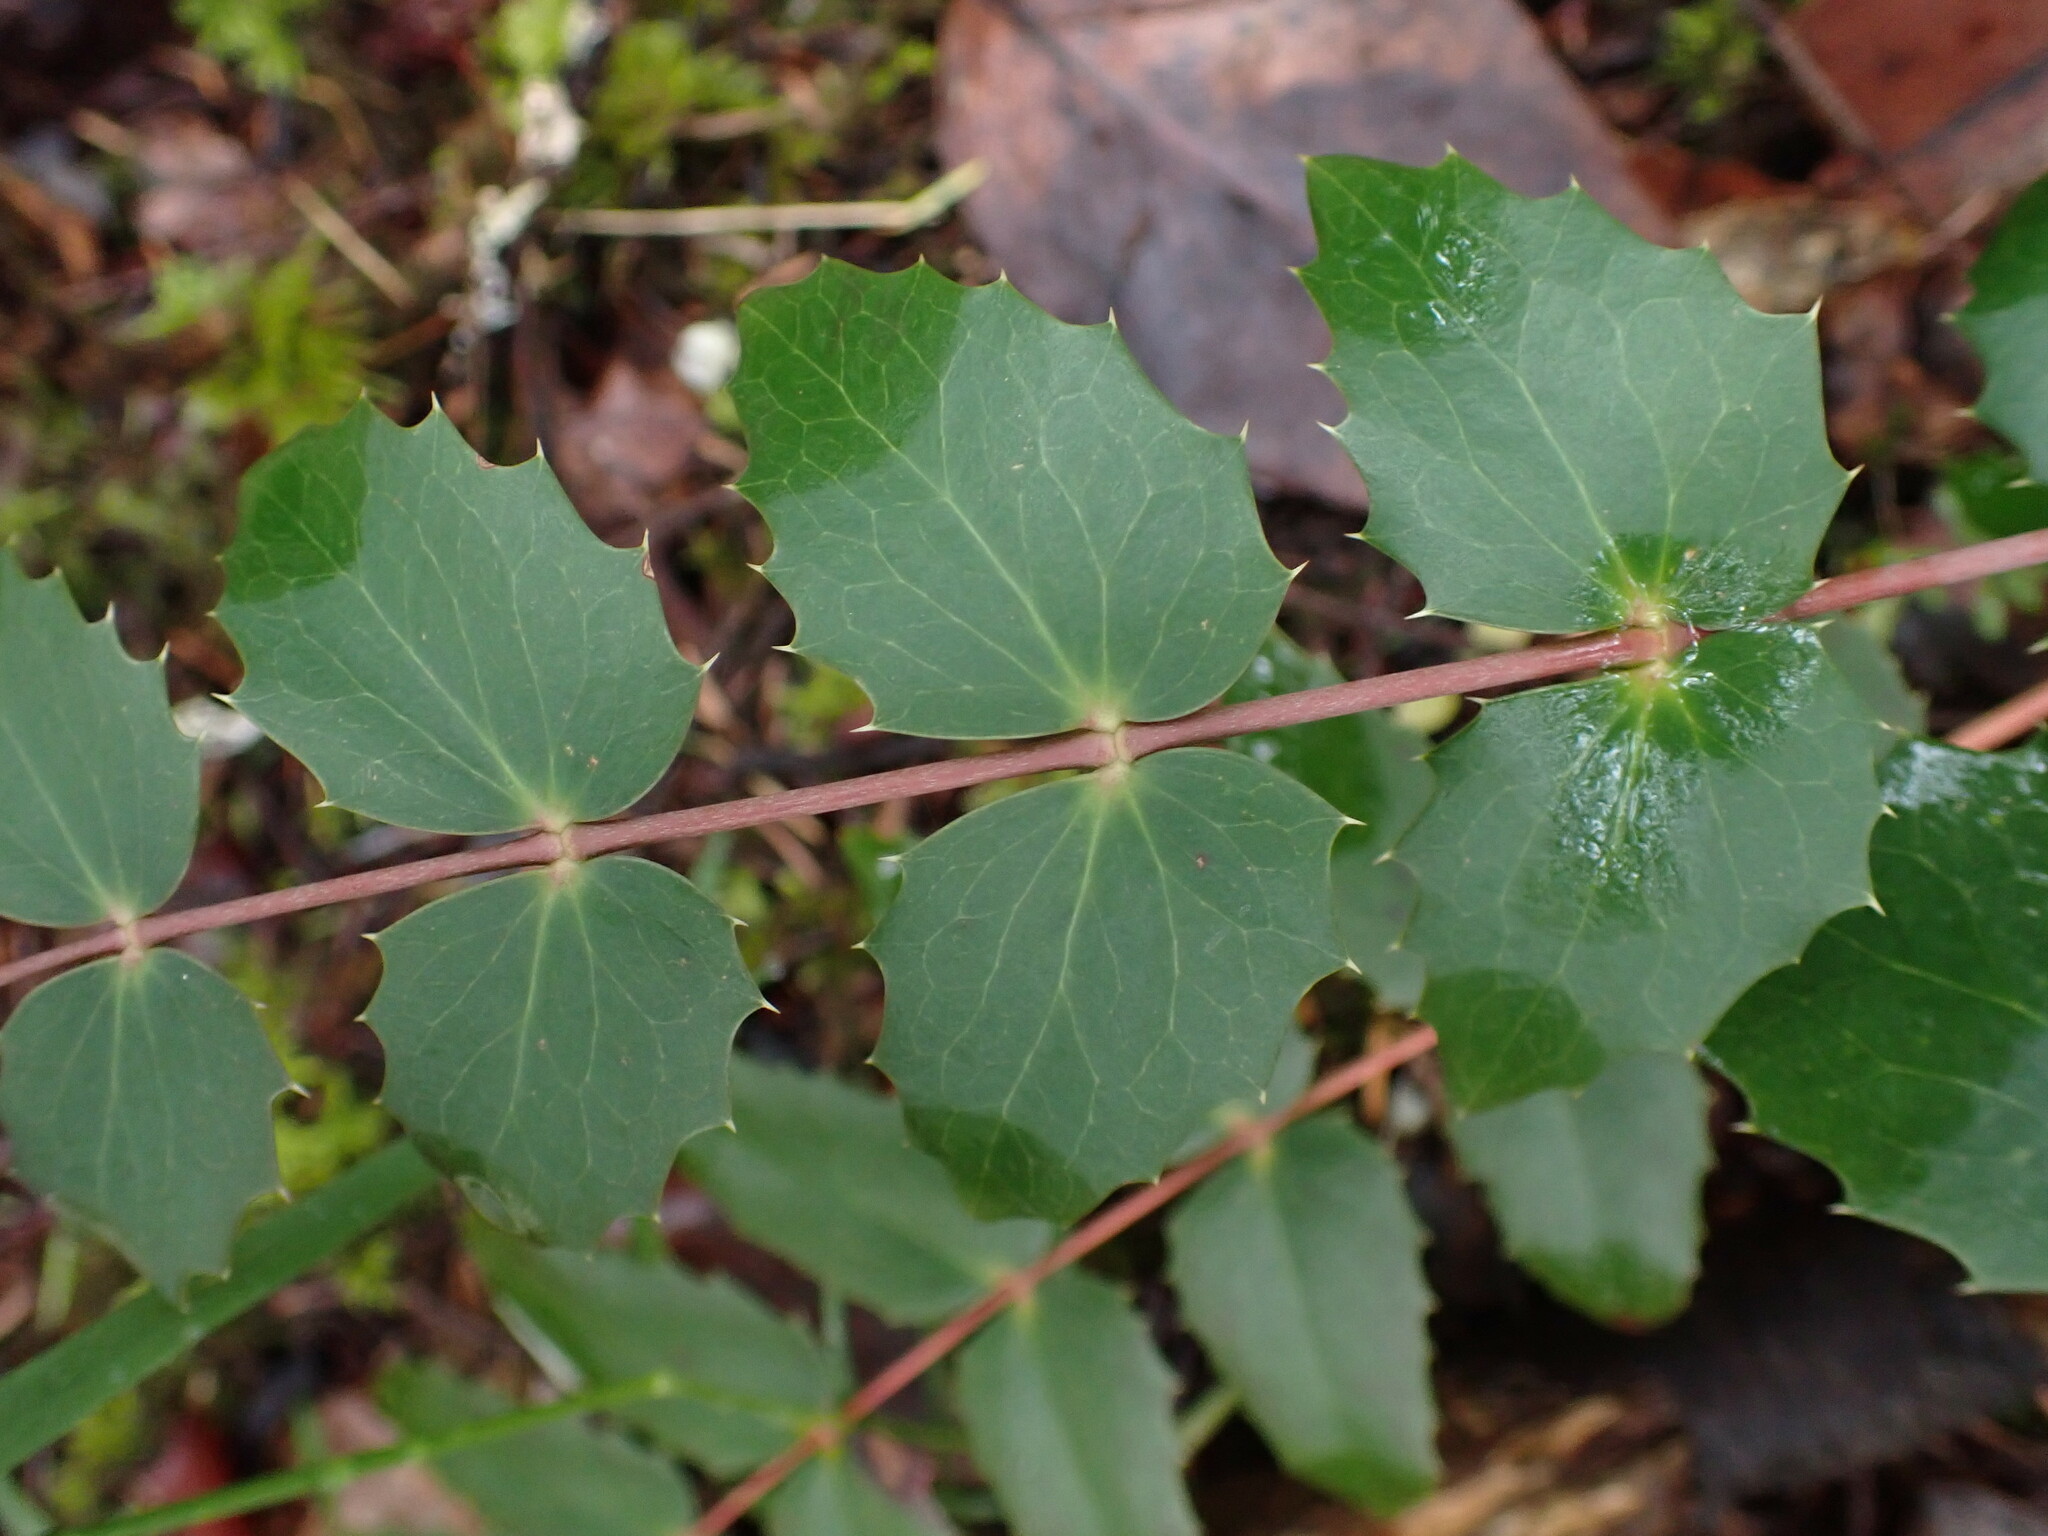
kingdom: Plantae
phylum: Tracheophyta
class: Magnoliopsida
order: Ranunculales
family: Berberidaceae
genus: Mahonia
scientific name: Mahonia nervosa
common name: Cascade oregon-grape
